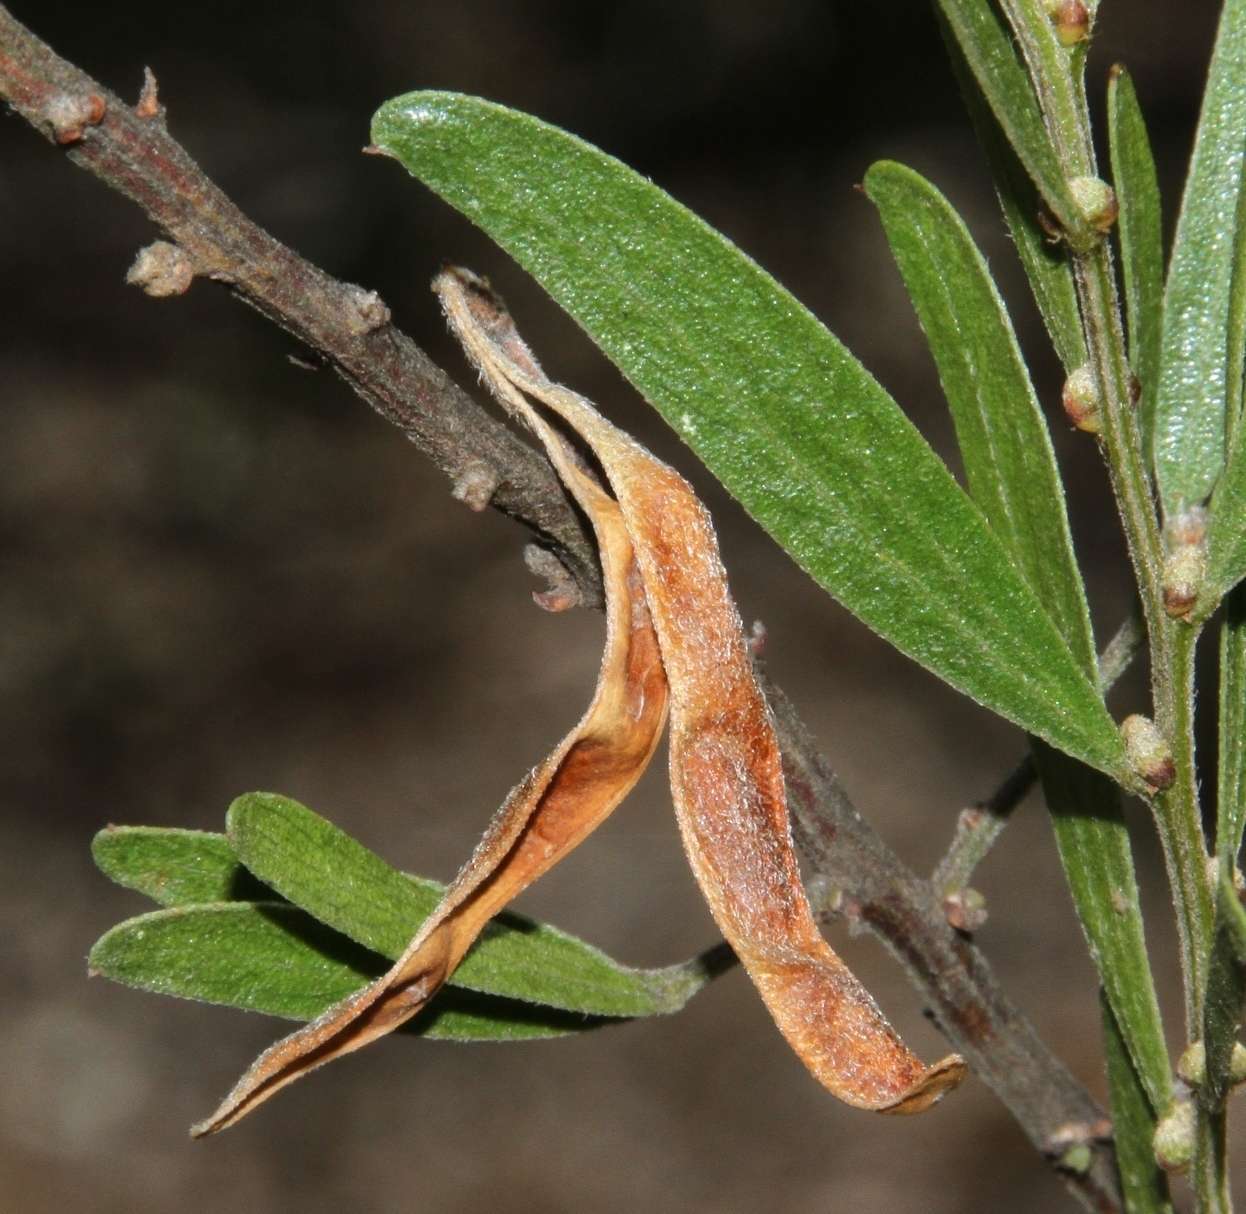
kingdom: Plantae
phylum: Tracheophyta
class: Magnoliopsida
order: Fabales
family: Fabaceae
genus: Acacia
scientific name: Acacia rostriformis
